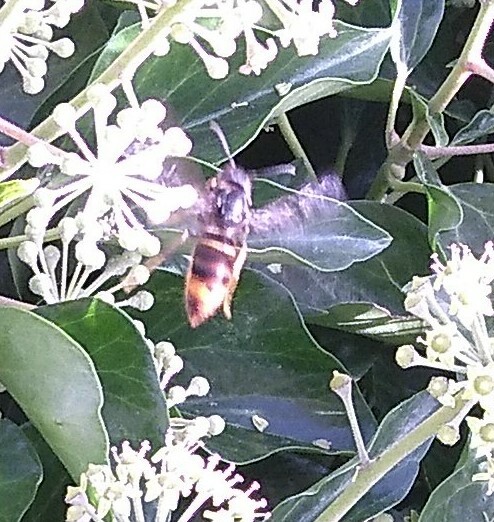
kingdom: Animalia
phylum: Arthropoda
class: Insecta
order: Hymenoptera
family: Vespidae
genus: Vespa
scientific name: Vespa velutina
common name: Asian hornet
